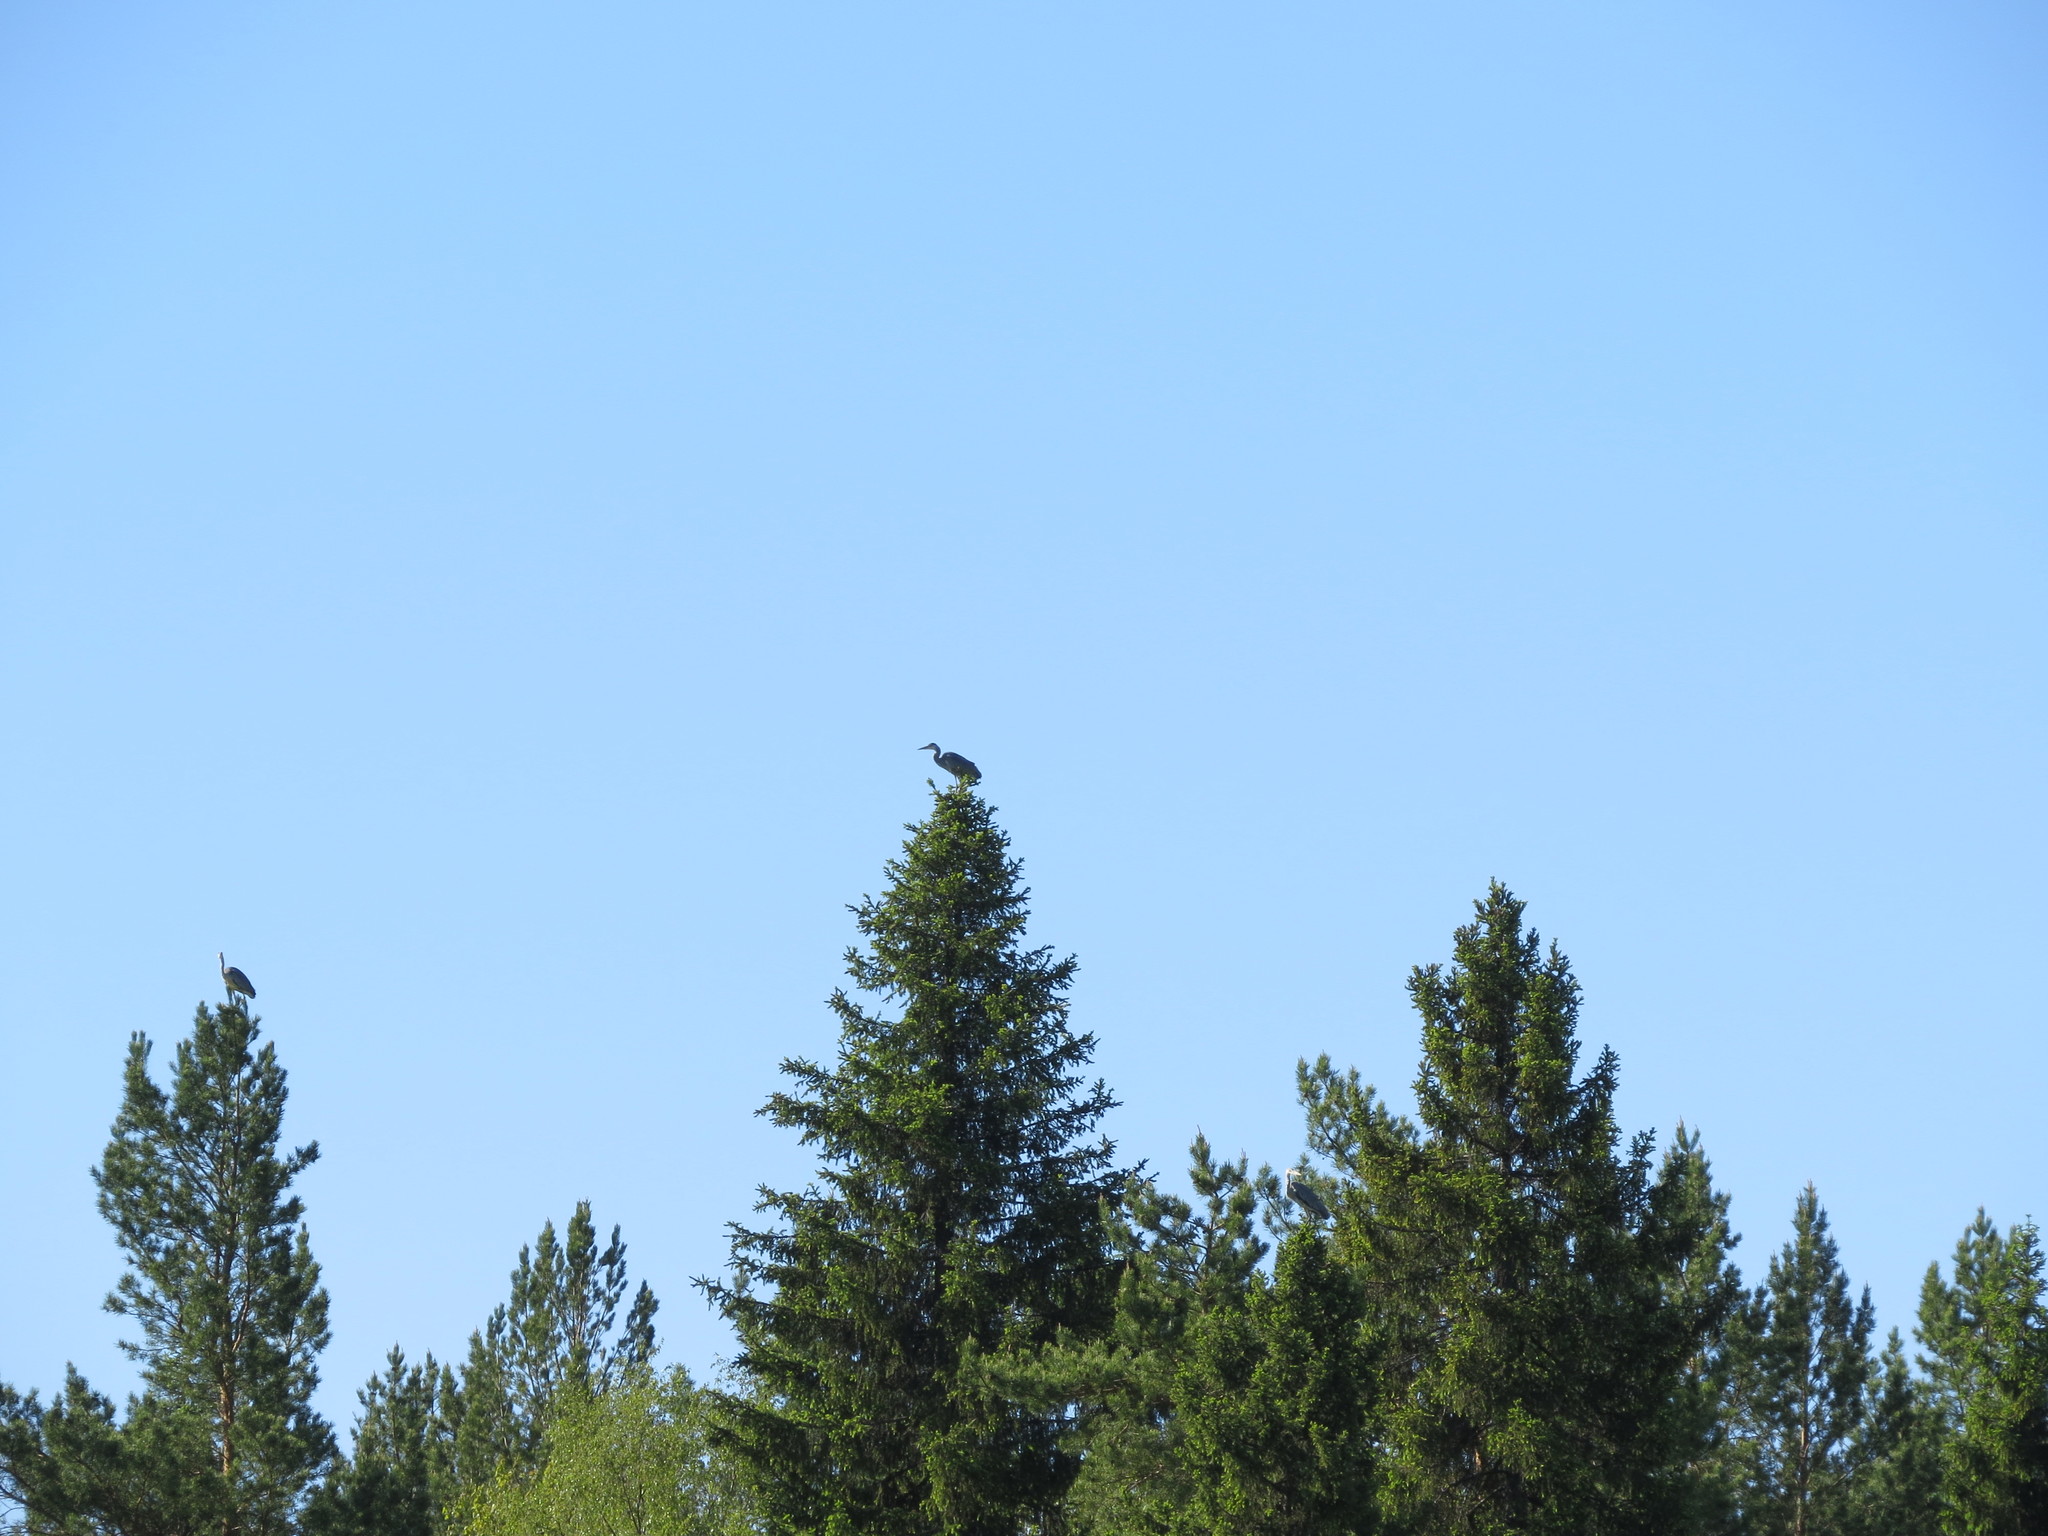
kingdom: Animalia
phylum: Chordata
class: Aves
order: Pelecaniformes
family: Ardeidae
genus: Ardea
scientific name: Ardea cinerea
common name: Grey heron
